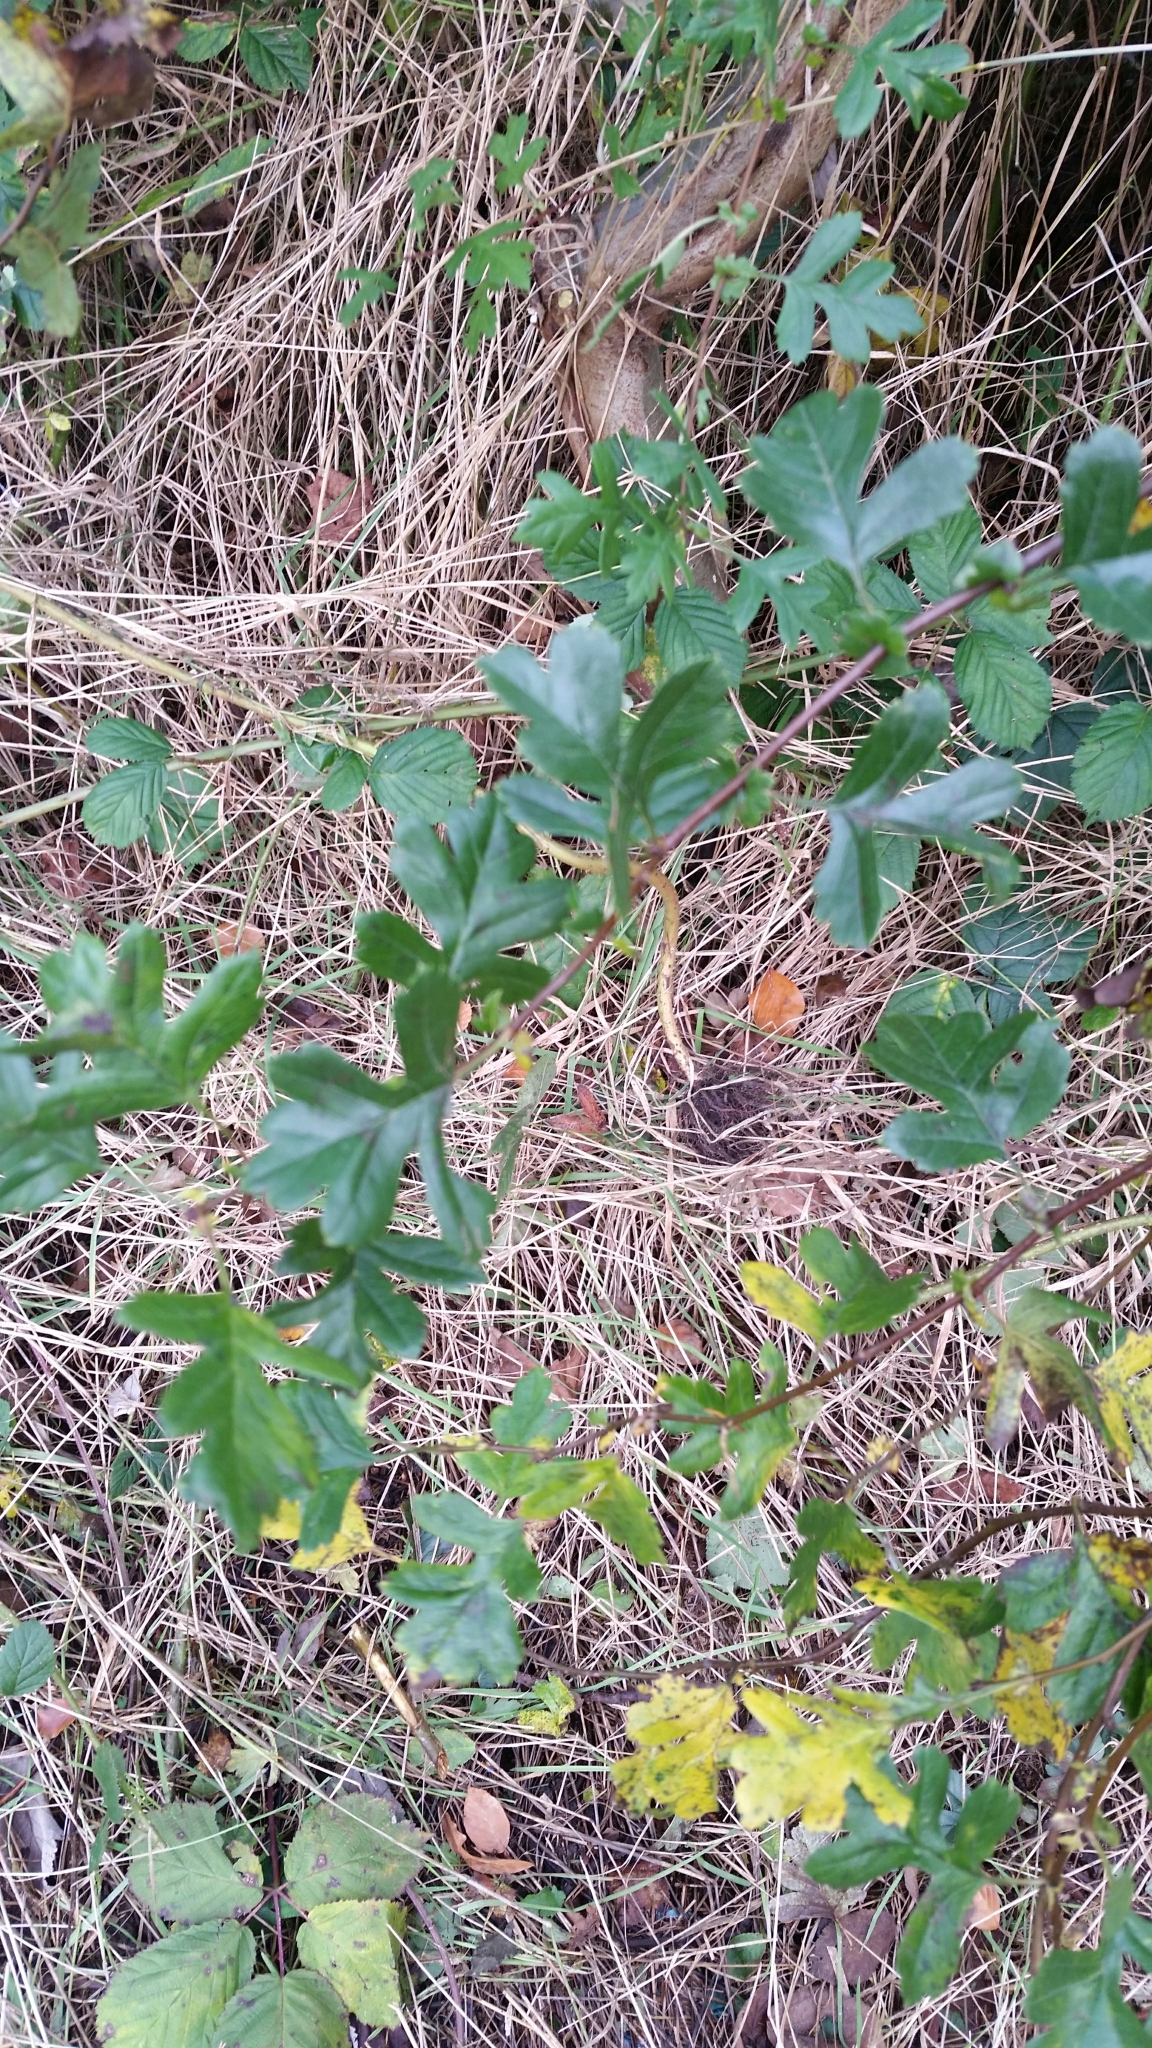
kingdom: Plantae
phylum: Tracheophyta
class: Magnoliopsida
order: Rosales
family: Rosaceae
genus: Crataegus
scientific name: Crataegus monogyna
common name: Hawthorn
